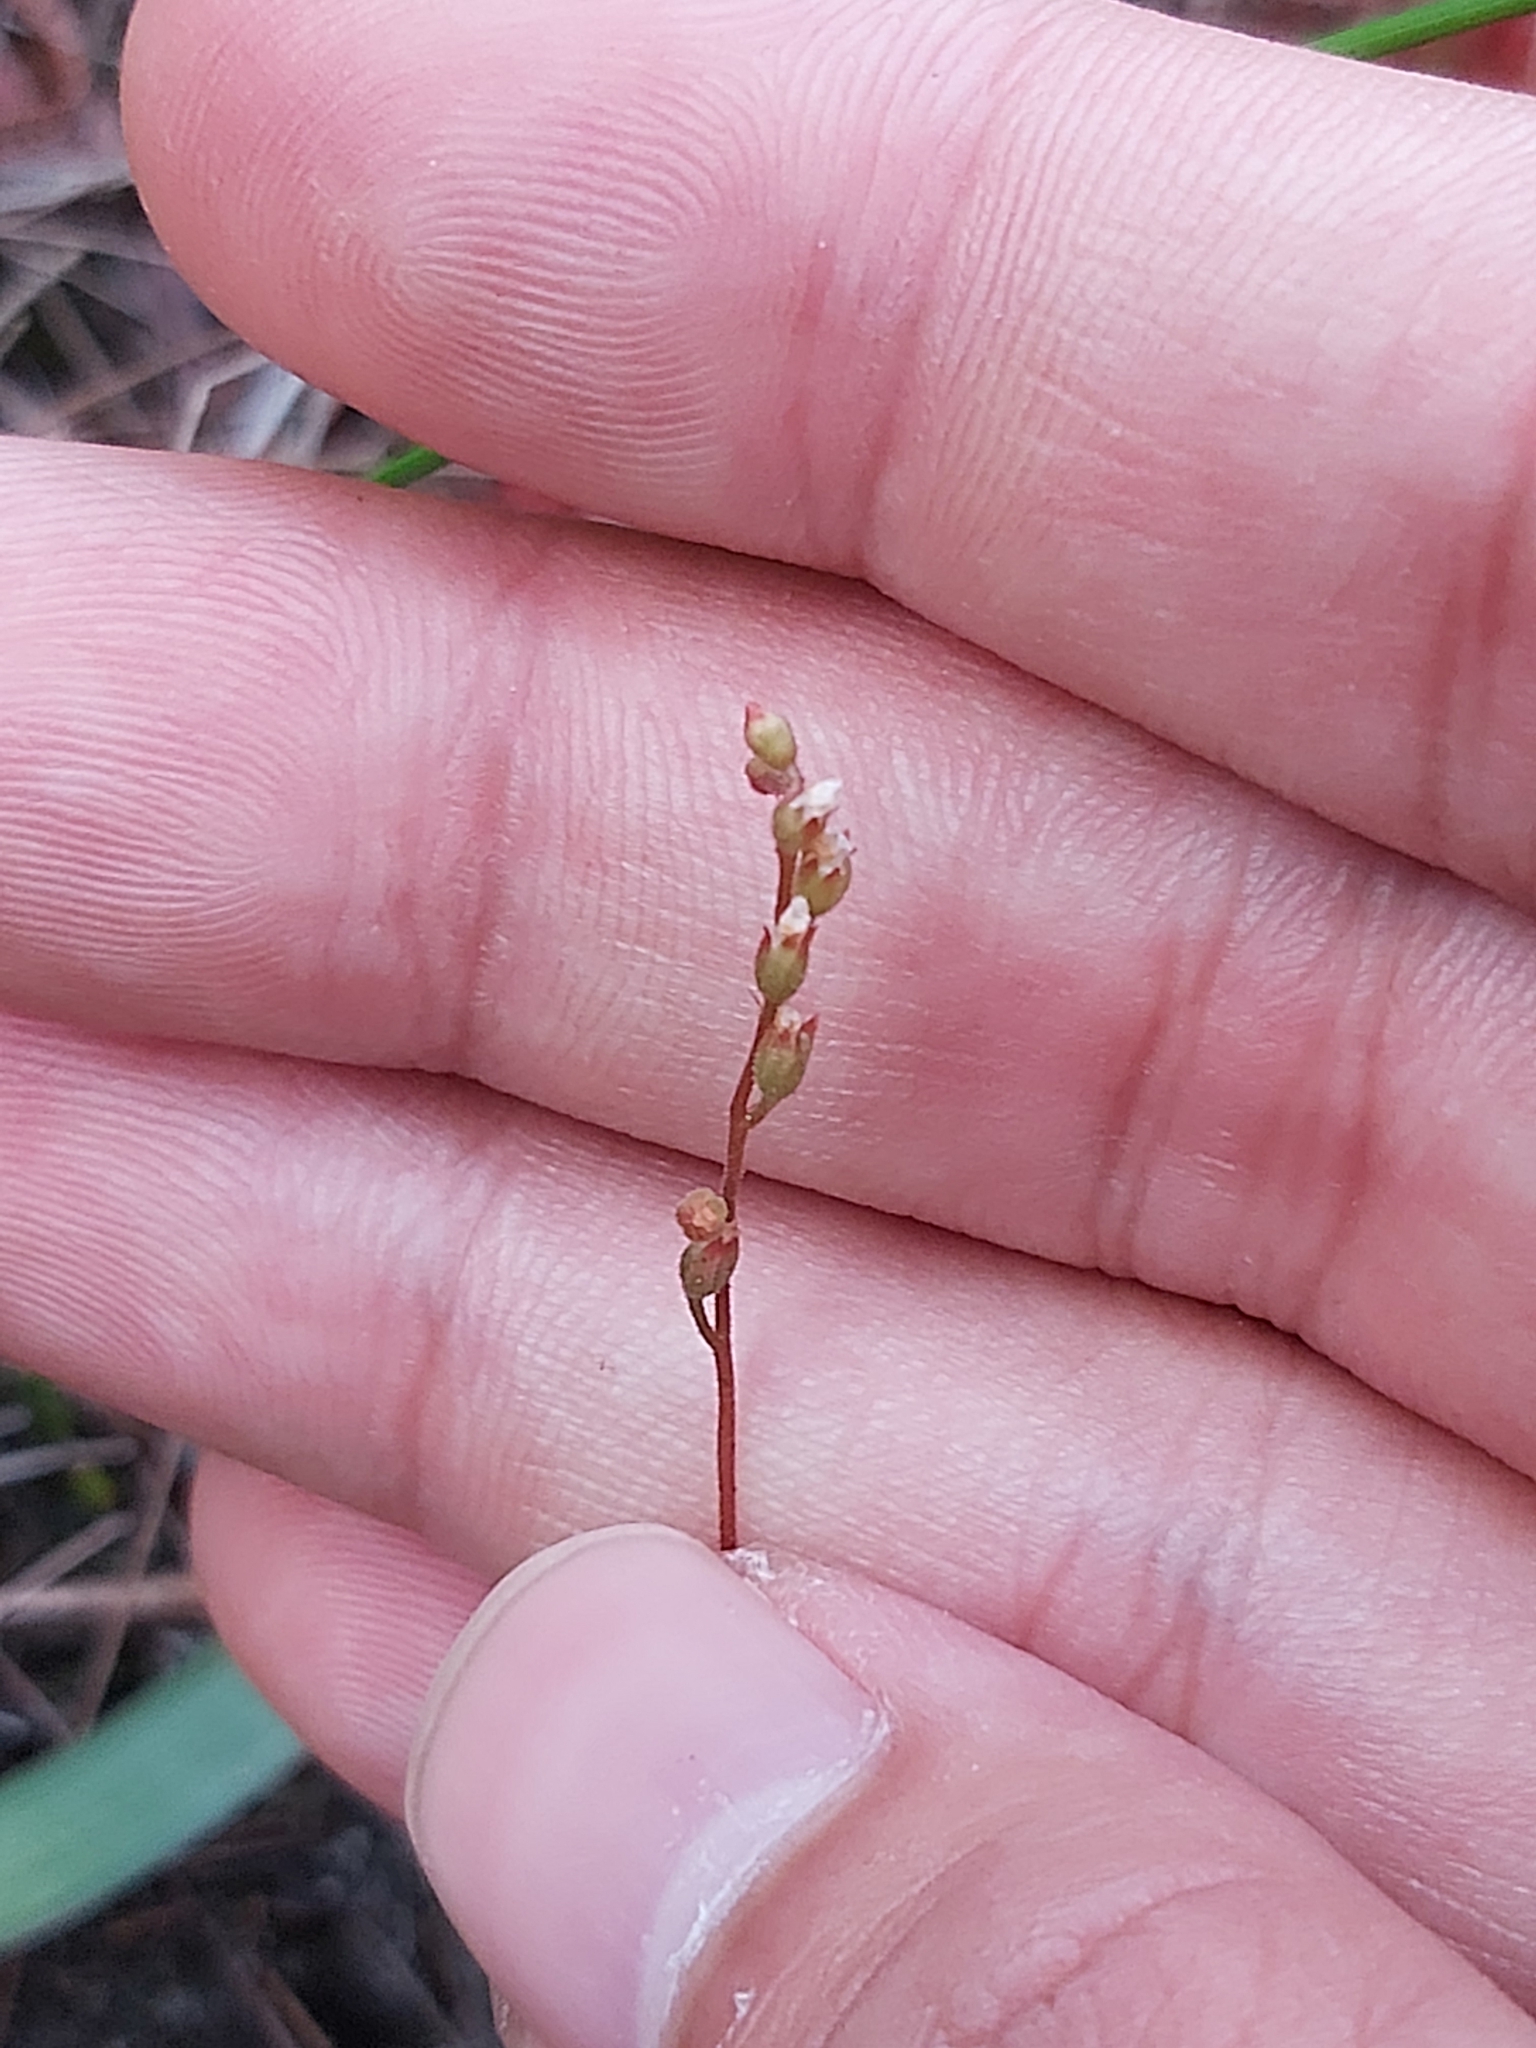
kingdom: Plantae
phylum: Tracheophyta
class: Magnoliopsida
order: Caryophyllales
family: Droseraceae
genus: Drosera
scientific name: Drosera spatulata
